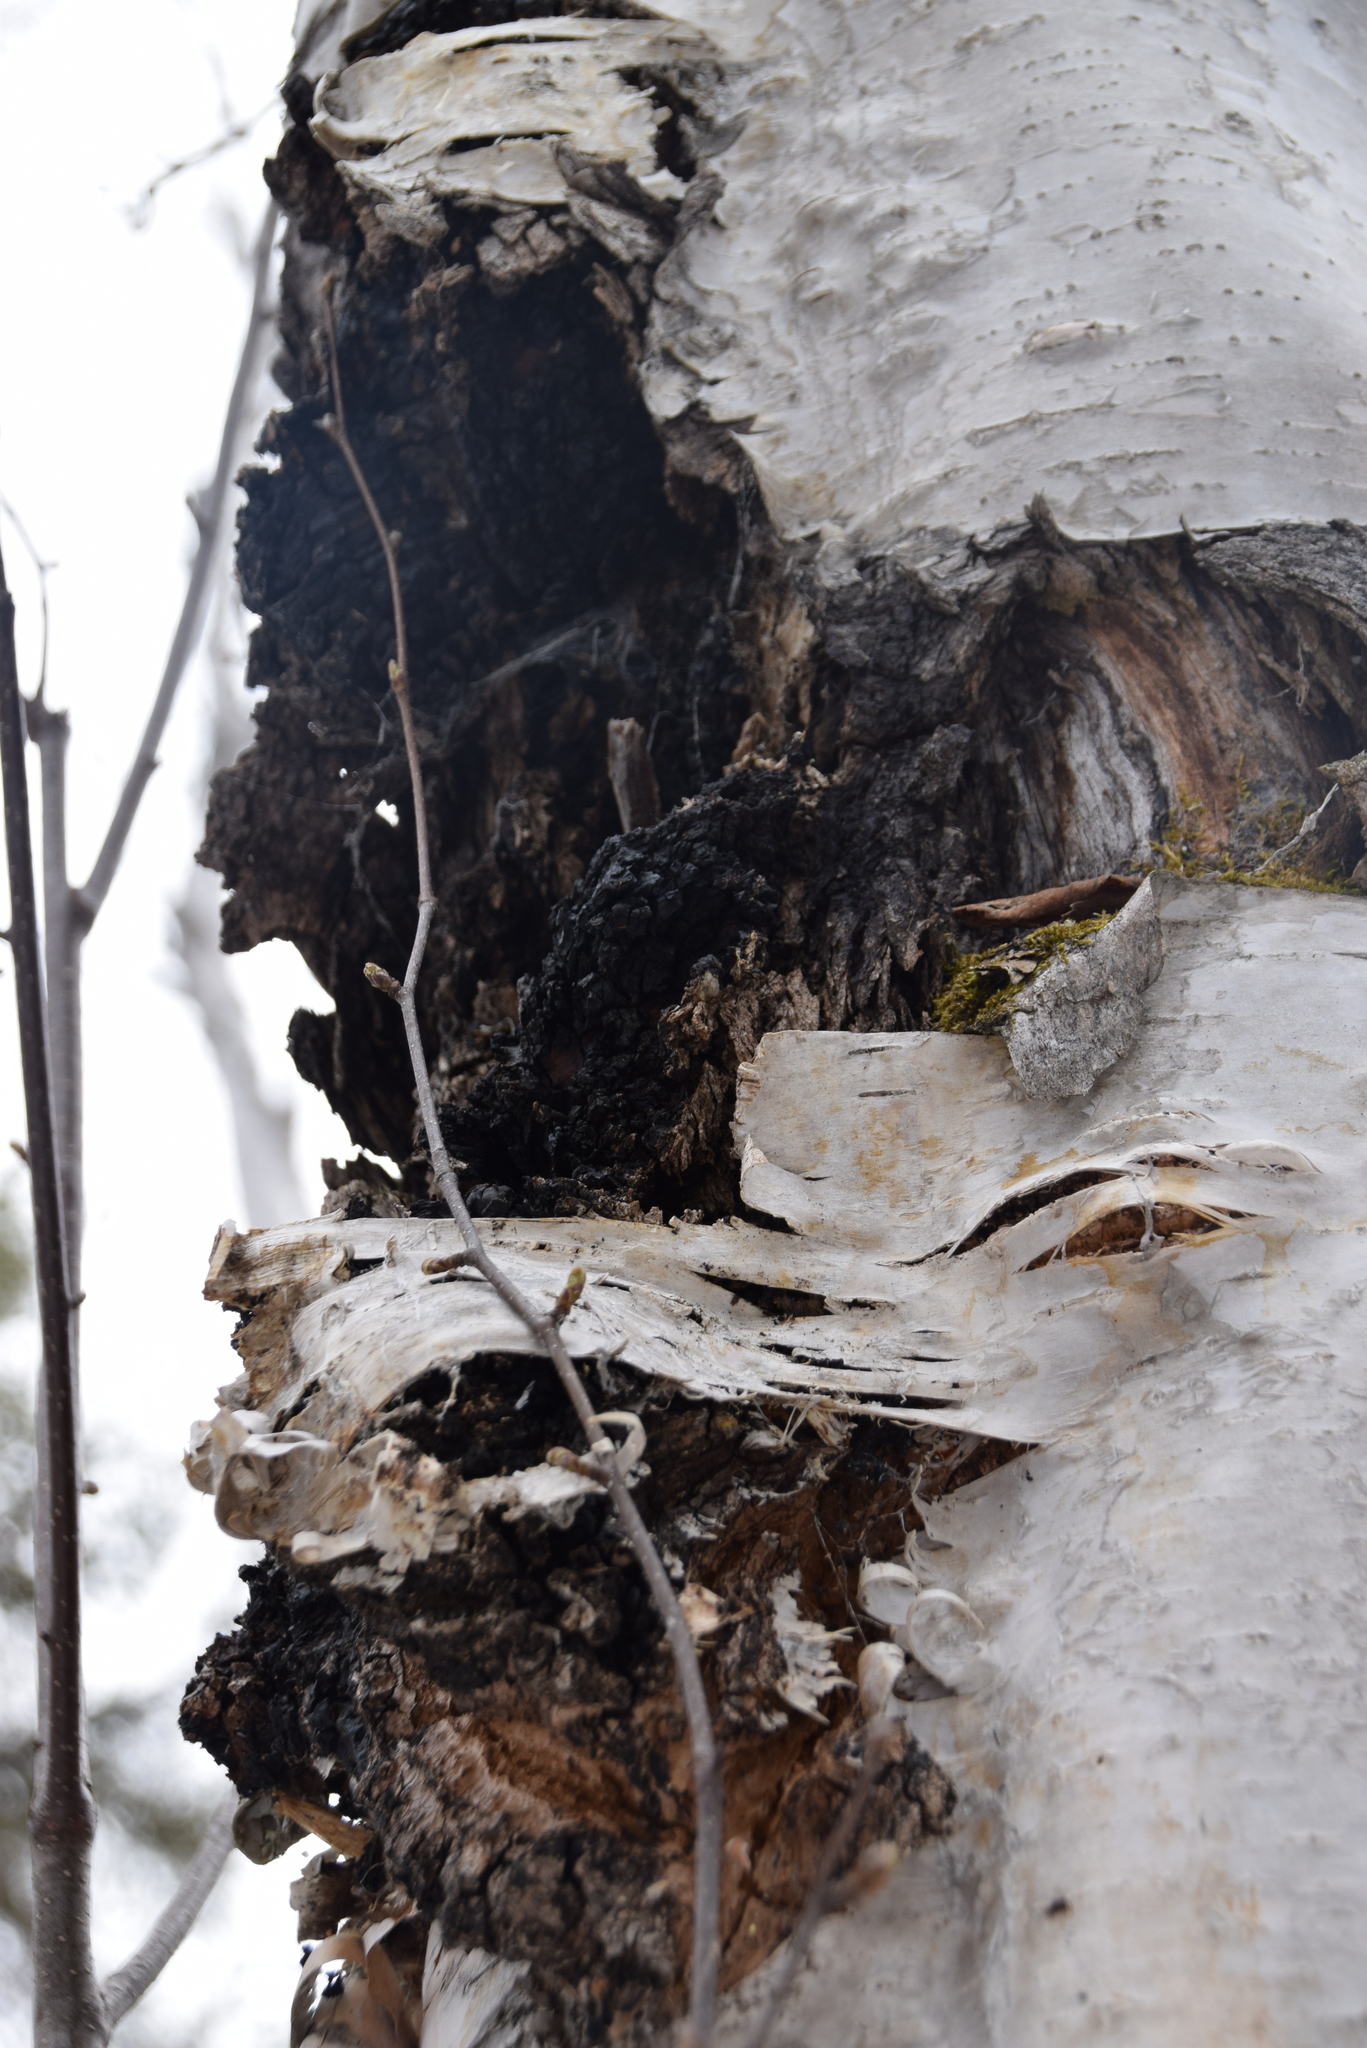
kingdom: Fungi
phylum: Basidiomycota
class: Agaricomycetes
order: Hymenochaetales
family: Hymenochaetaceae
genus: Inonotus
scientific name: Inonotus obliquus
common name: Chaga
